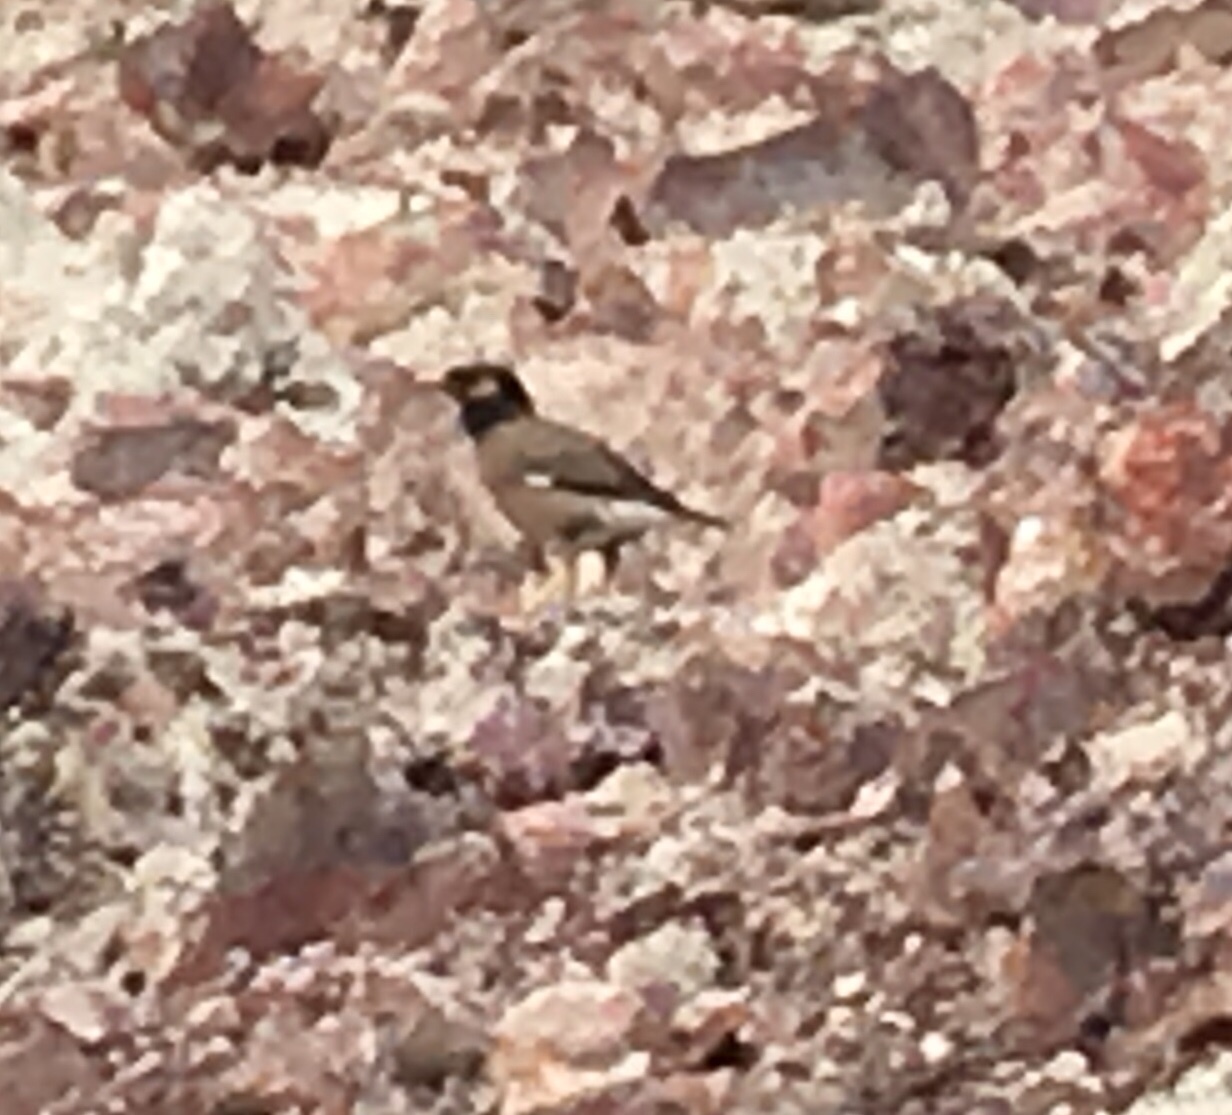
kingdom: Animalia
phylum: Chordata
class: Aves
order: Passeriformes
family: Sturnidae
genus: Acridotheres
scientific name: Acridotheres tristis
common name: Common myna
